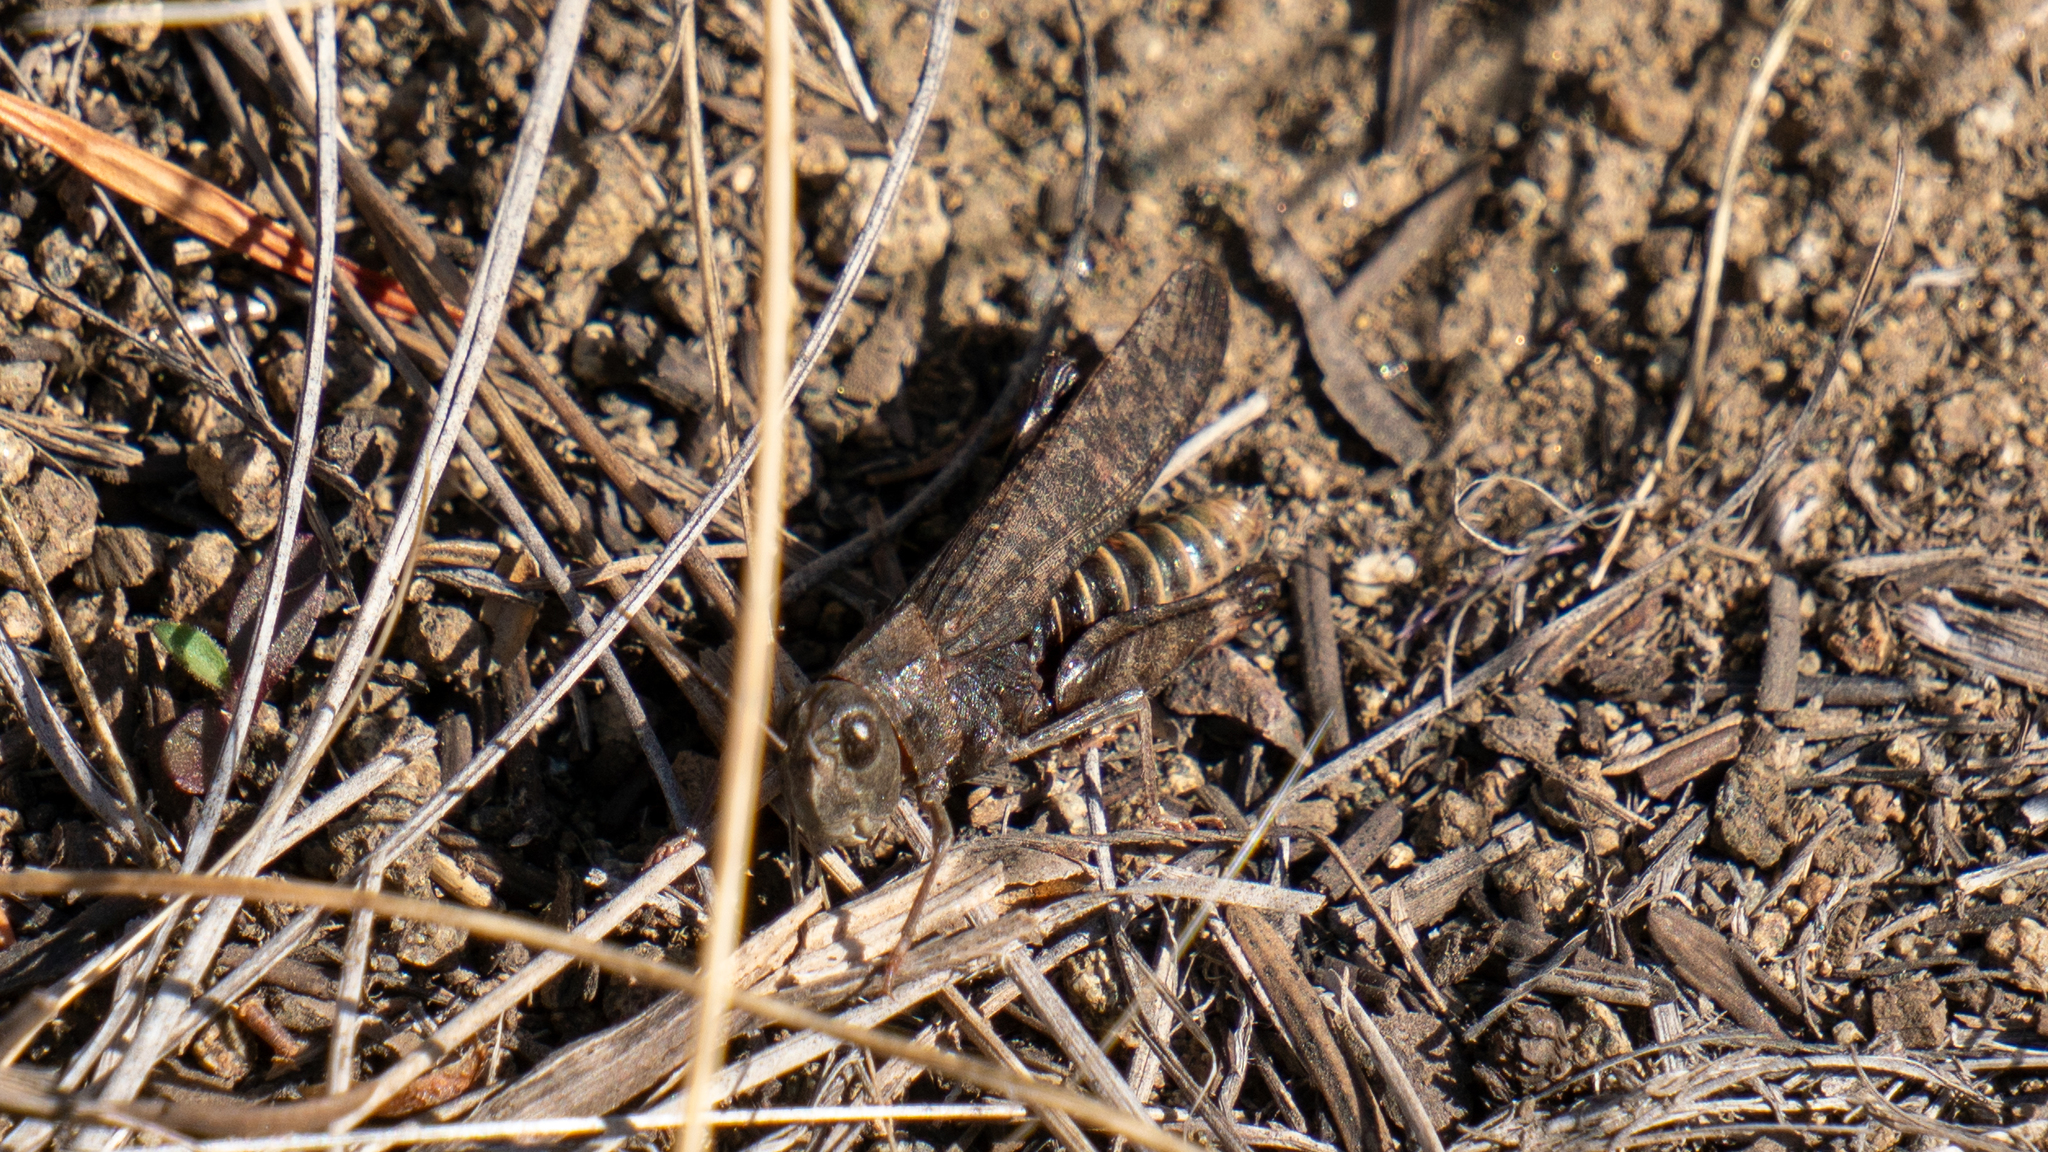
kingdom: Animalia
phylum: Arthropoda
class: Insecta
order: Orthoptera
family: Acrididae
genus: Arphia
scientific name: Arphia pseudo-nietana
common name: Red-winged grasshopper
